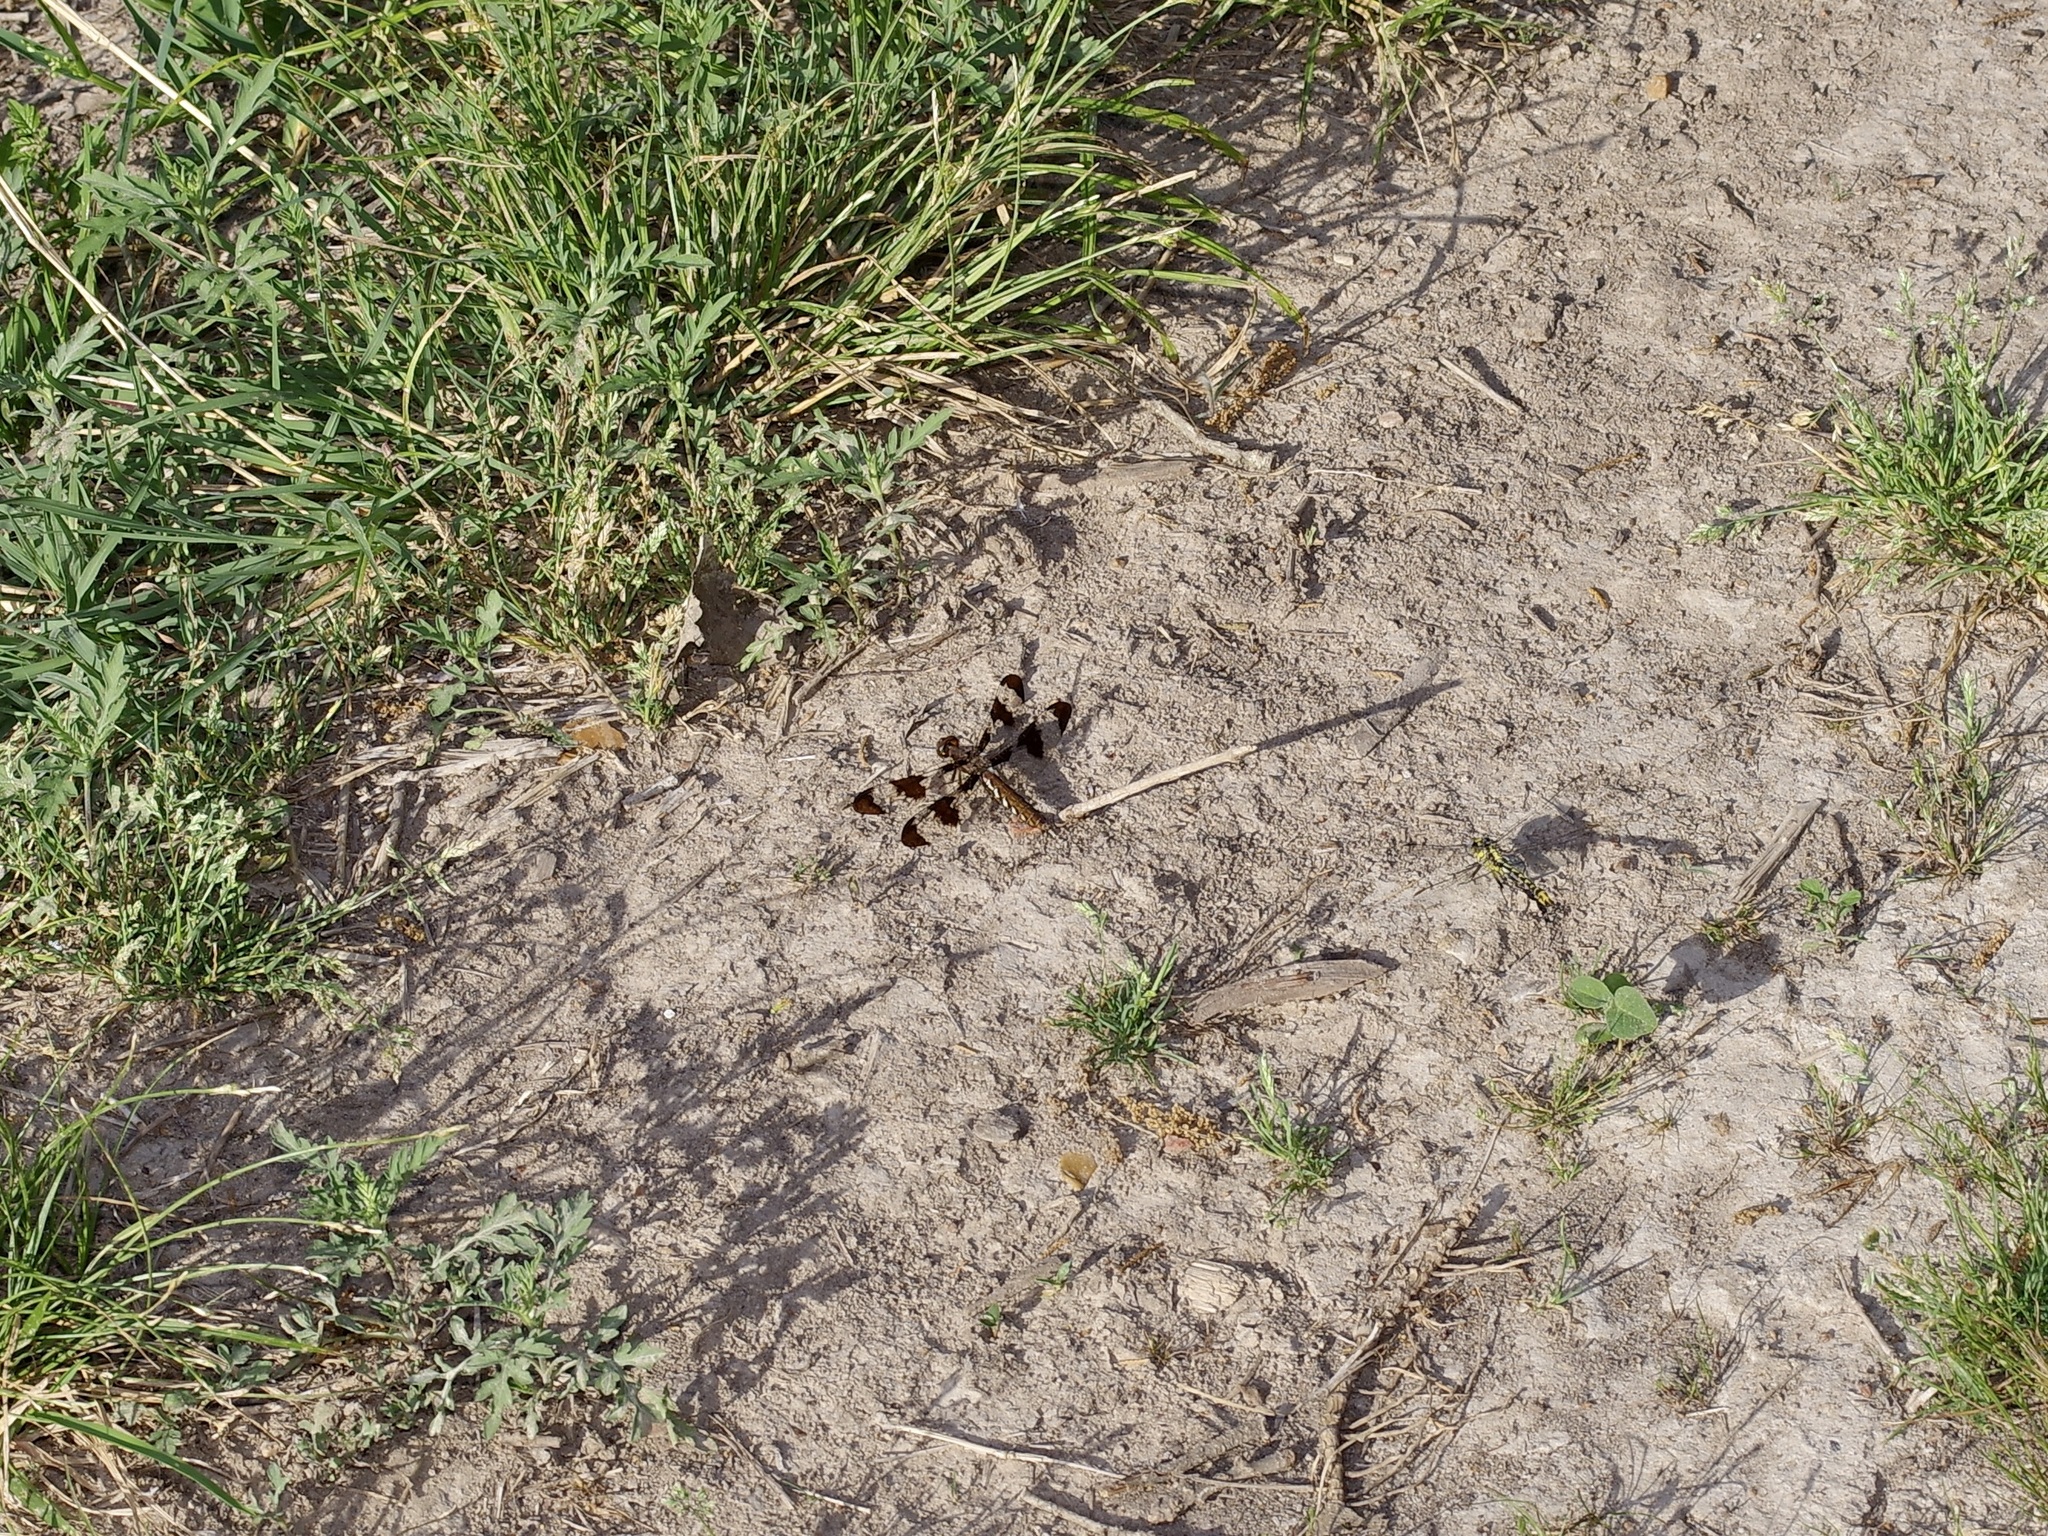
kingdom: Animalia
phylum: Arthropoda
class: Insecta
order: Odonata
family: Libellulidae
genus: Plathemis
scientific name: Plathemis lydia
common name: Common whitetail
